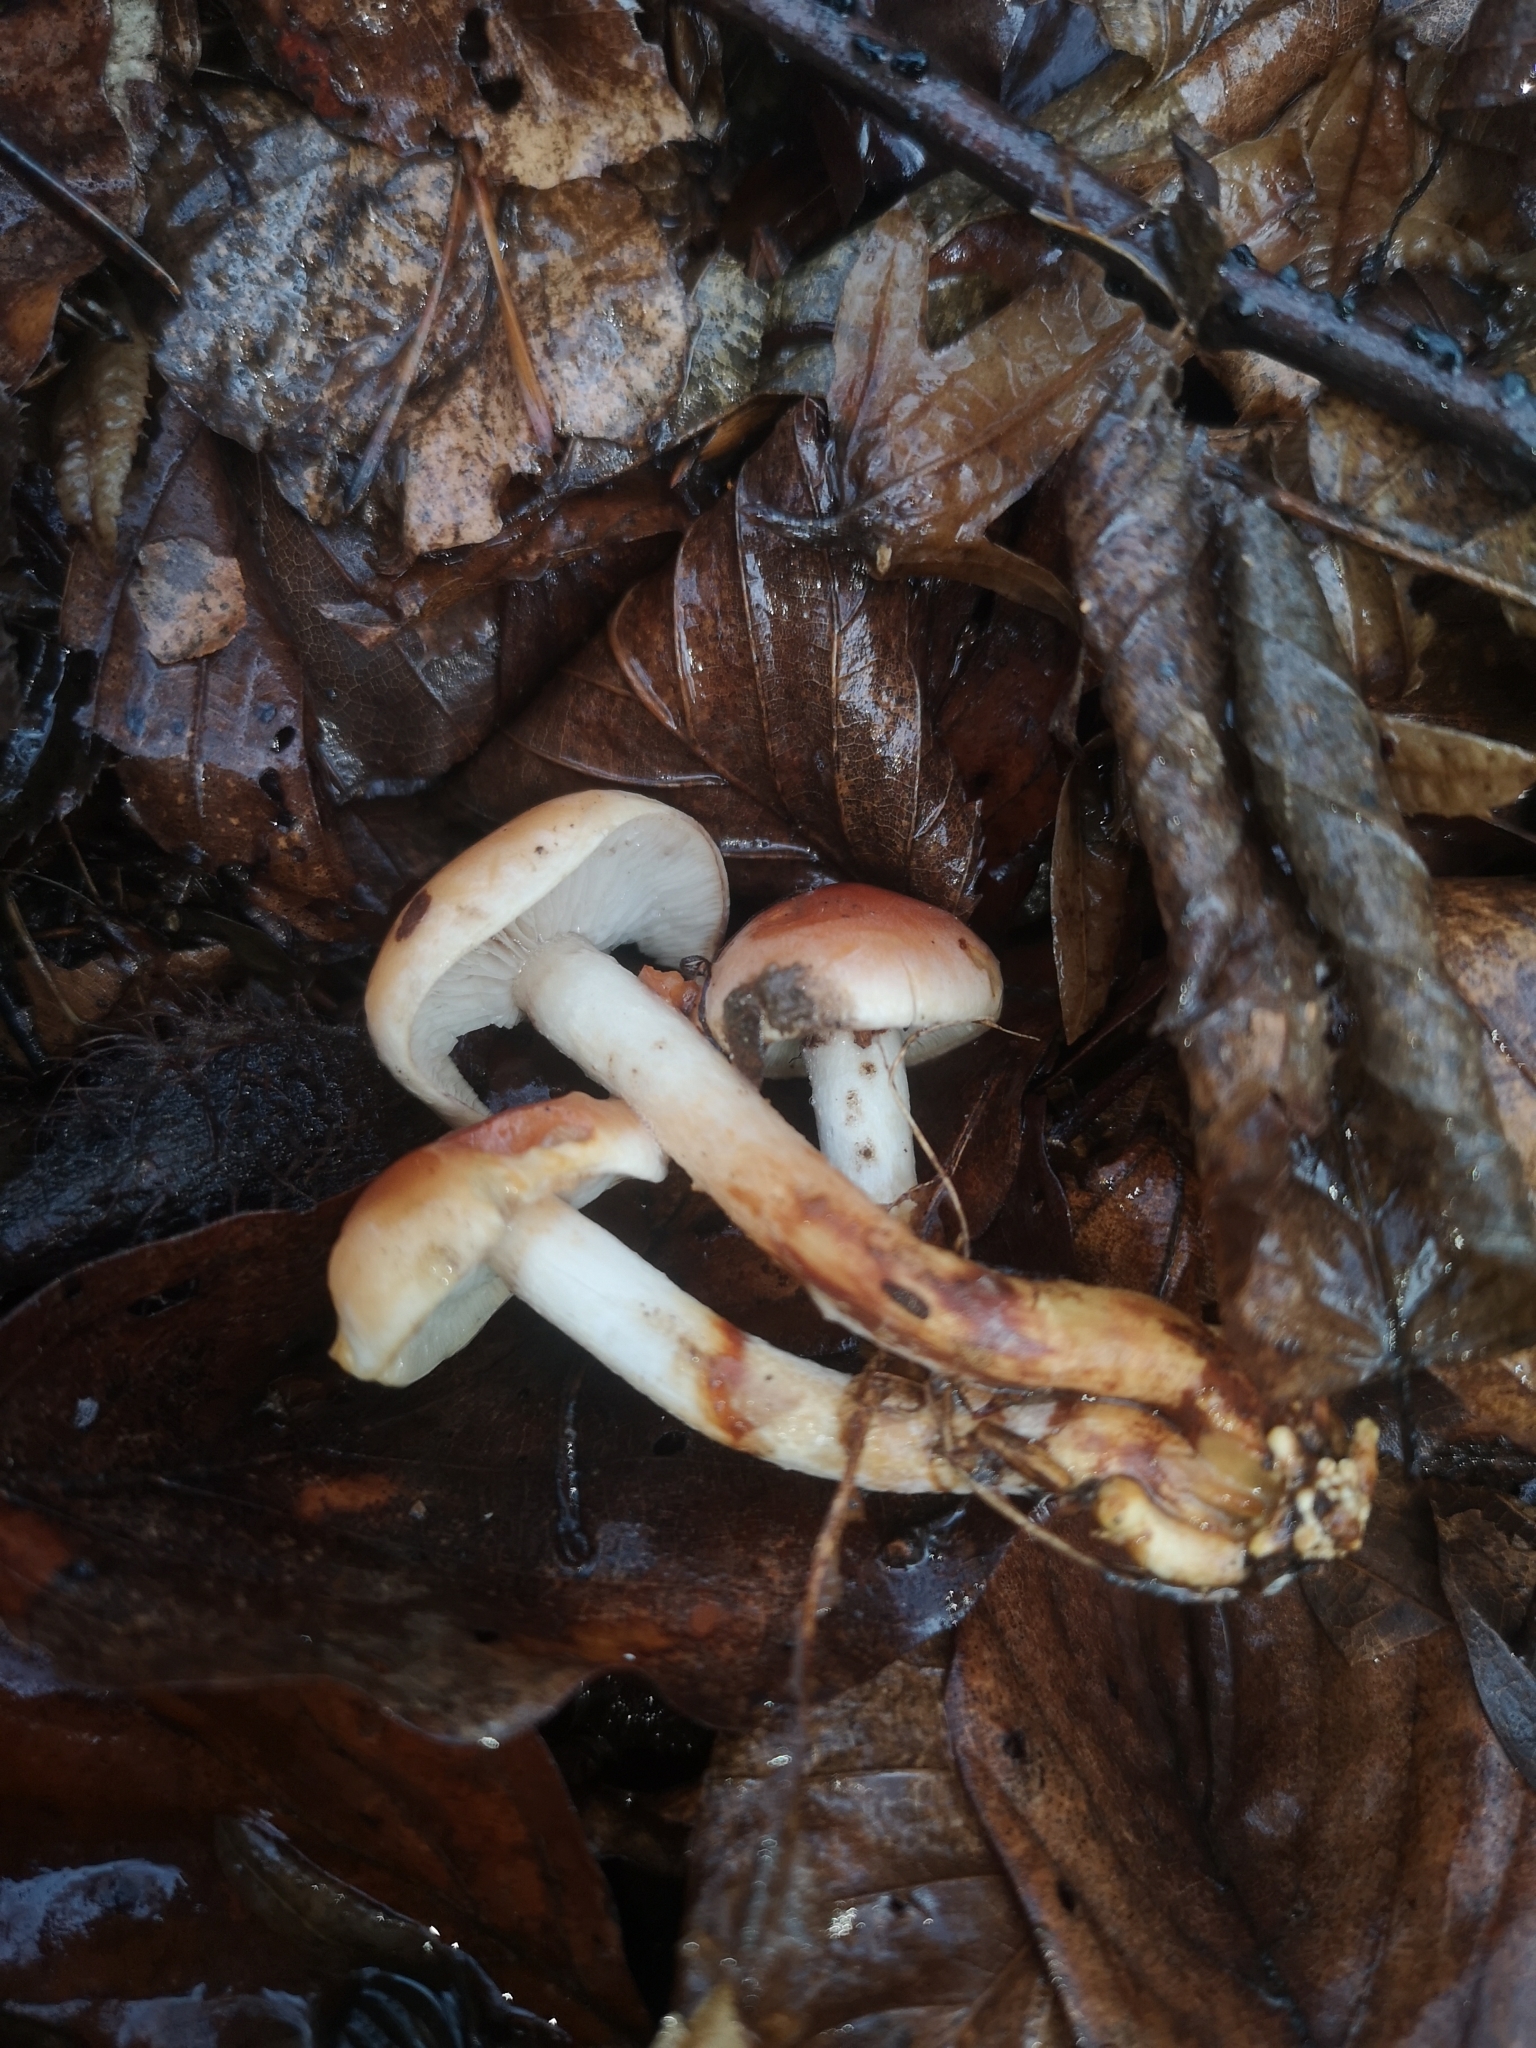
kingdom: Fungi
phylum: Basidiomycota
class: Agaricomycetes
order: Agaricales
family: Strophariaceae
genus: Hypholoma
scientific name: Hypholoma lateritium
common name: Brick caps
